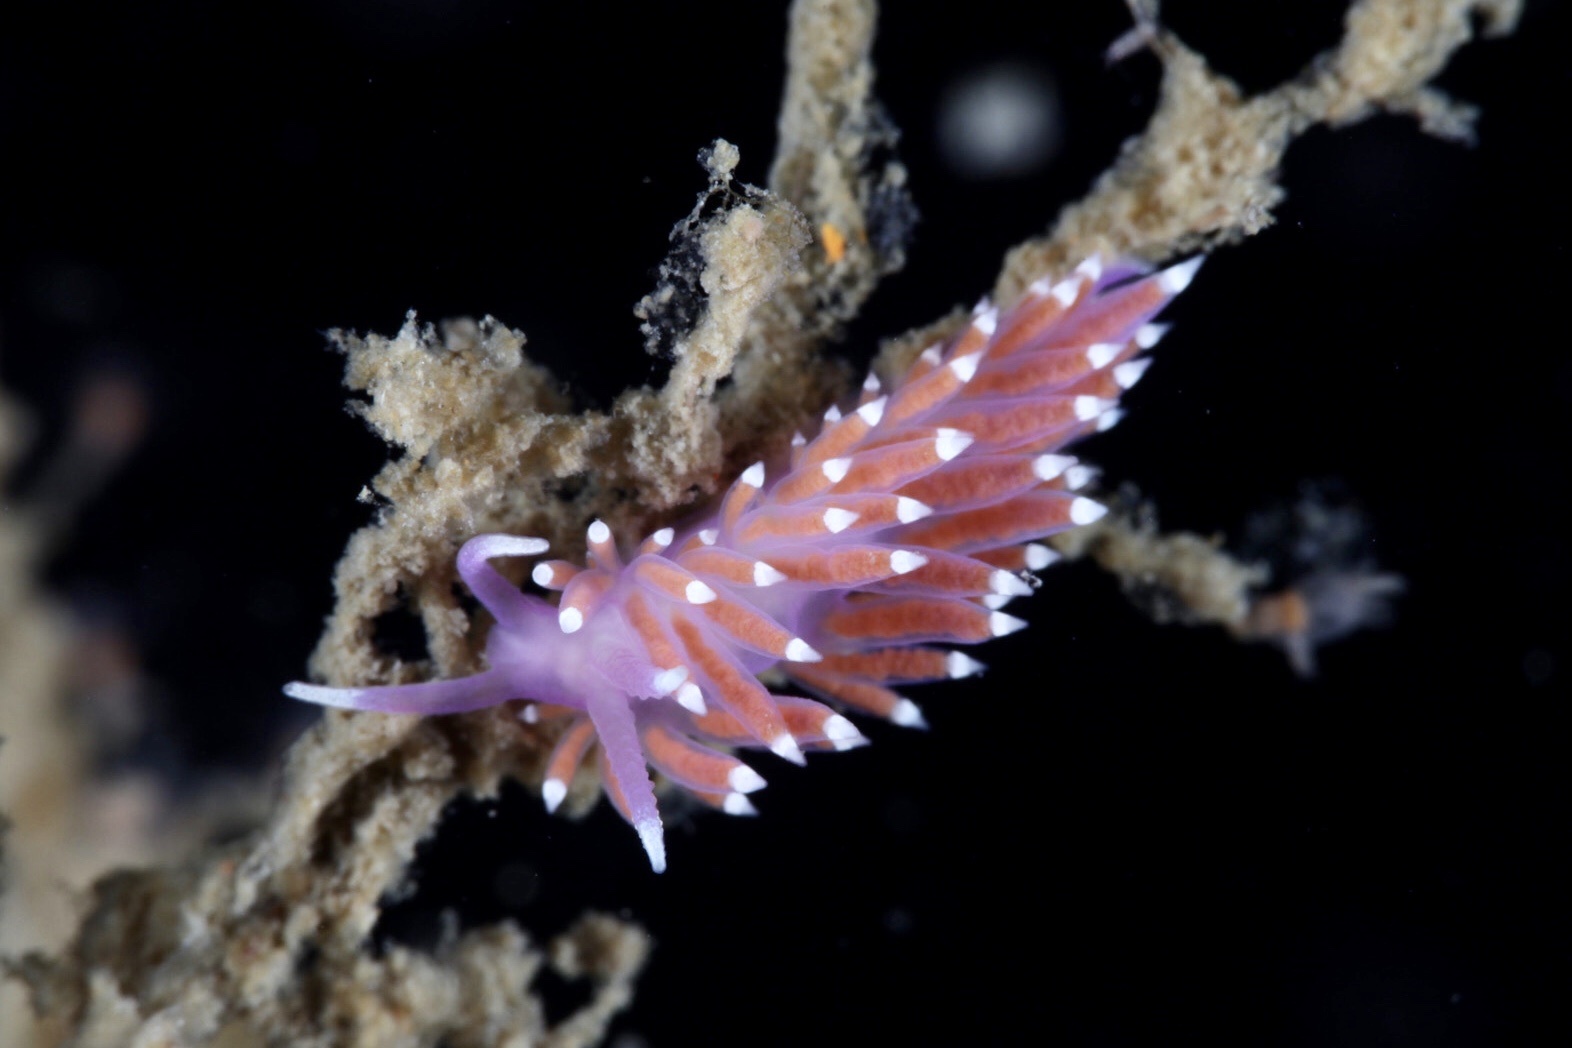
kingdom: Animalia
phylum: Mollusca
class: Gastropoda
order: Nudibranchia
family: Flabellinidae
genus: Edmundsella
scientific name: Edmundsella pedata
